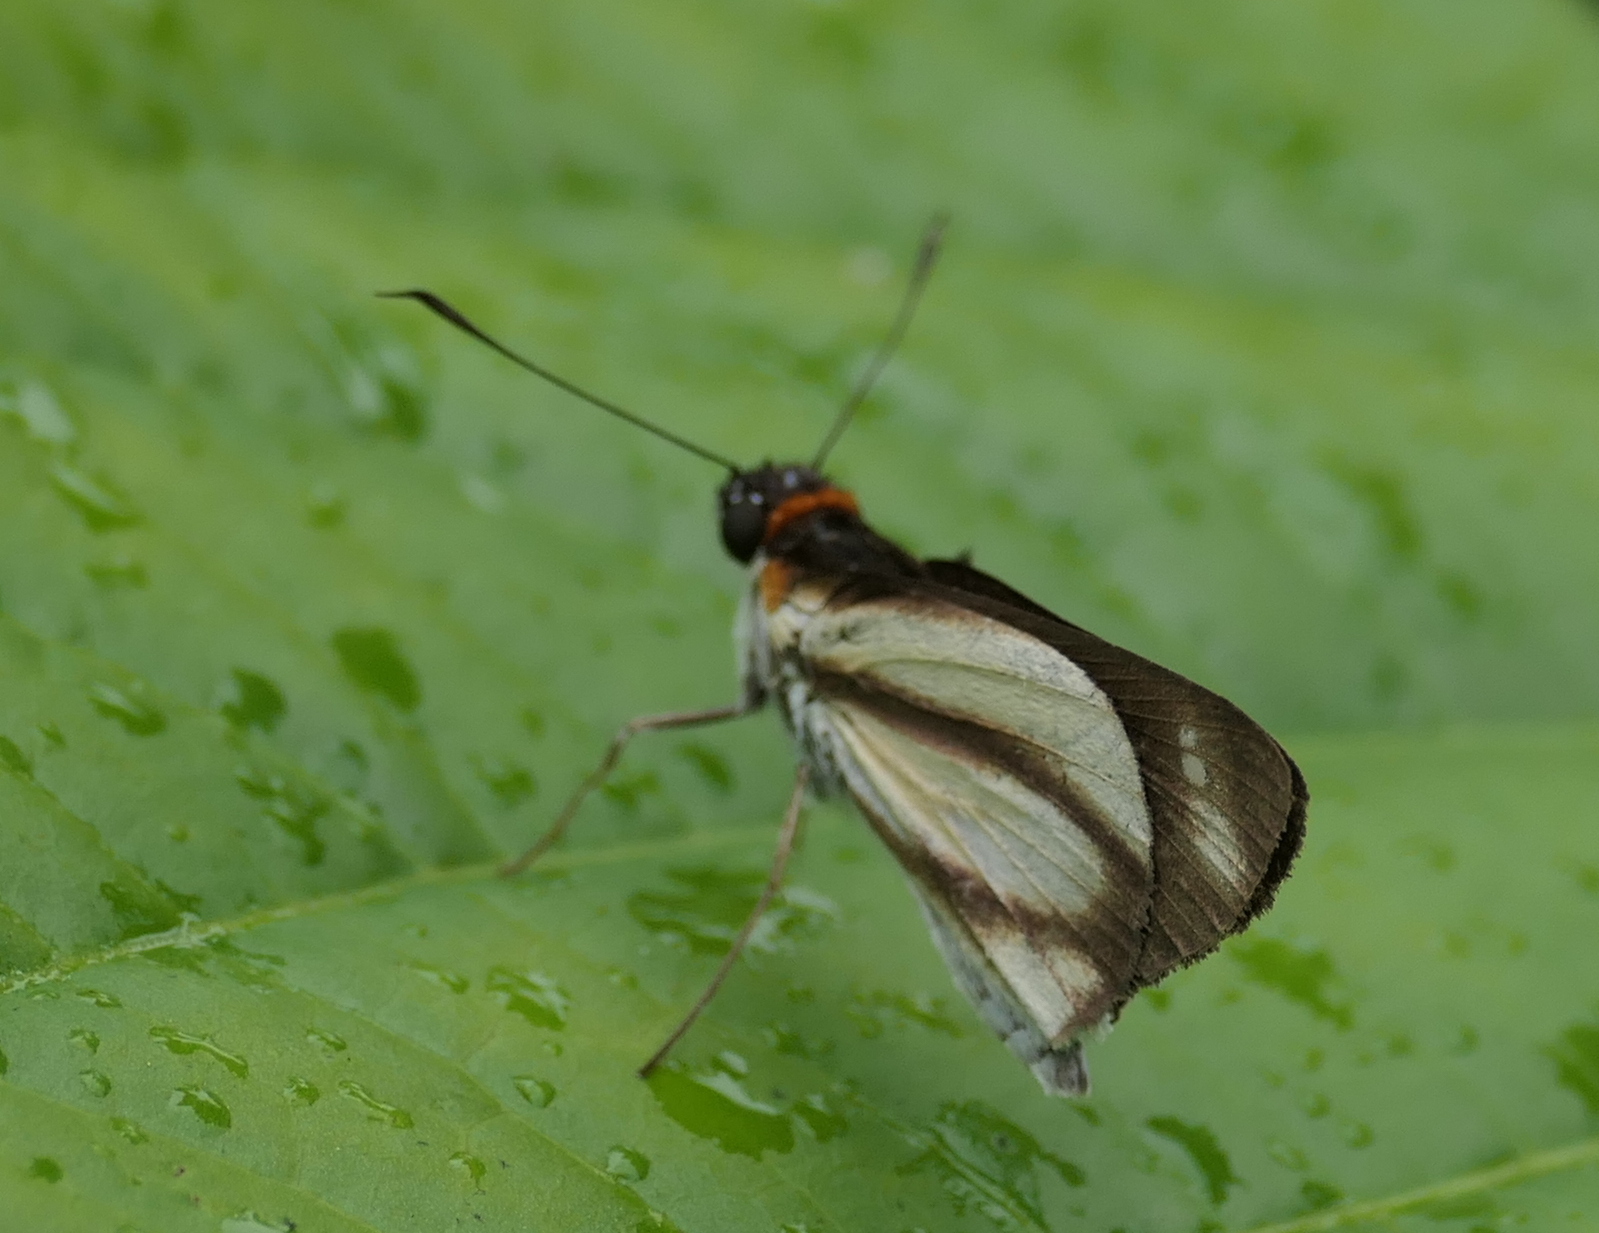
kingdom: Animalia
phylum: Arthropoda
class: Insecta
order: Lepidoptera
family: Hesperiidae
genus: Vettius
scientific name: Vettius marcus
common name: Marcus skipper
